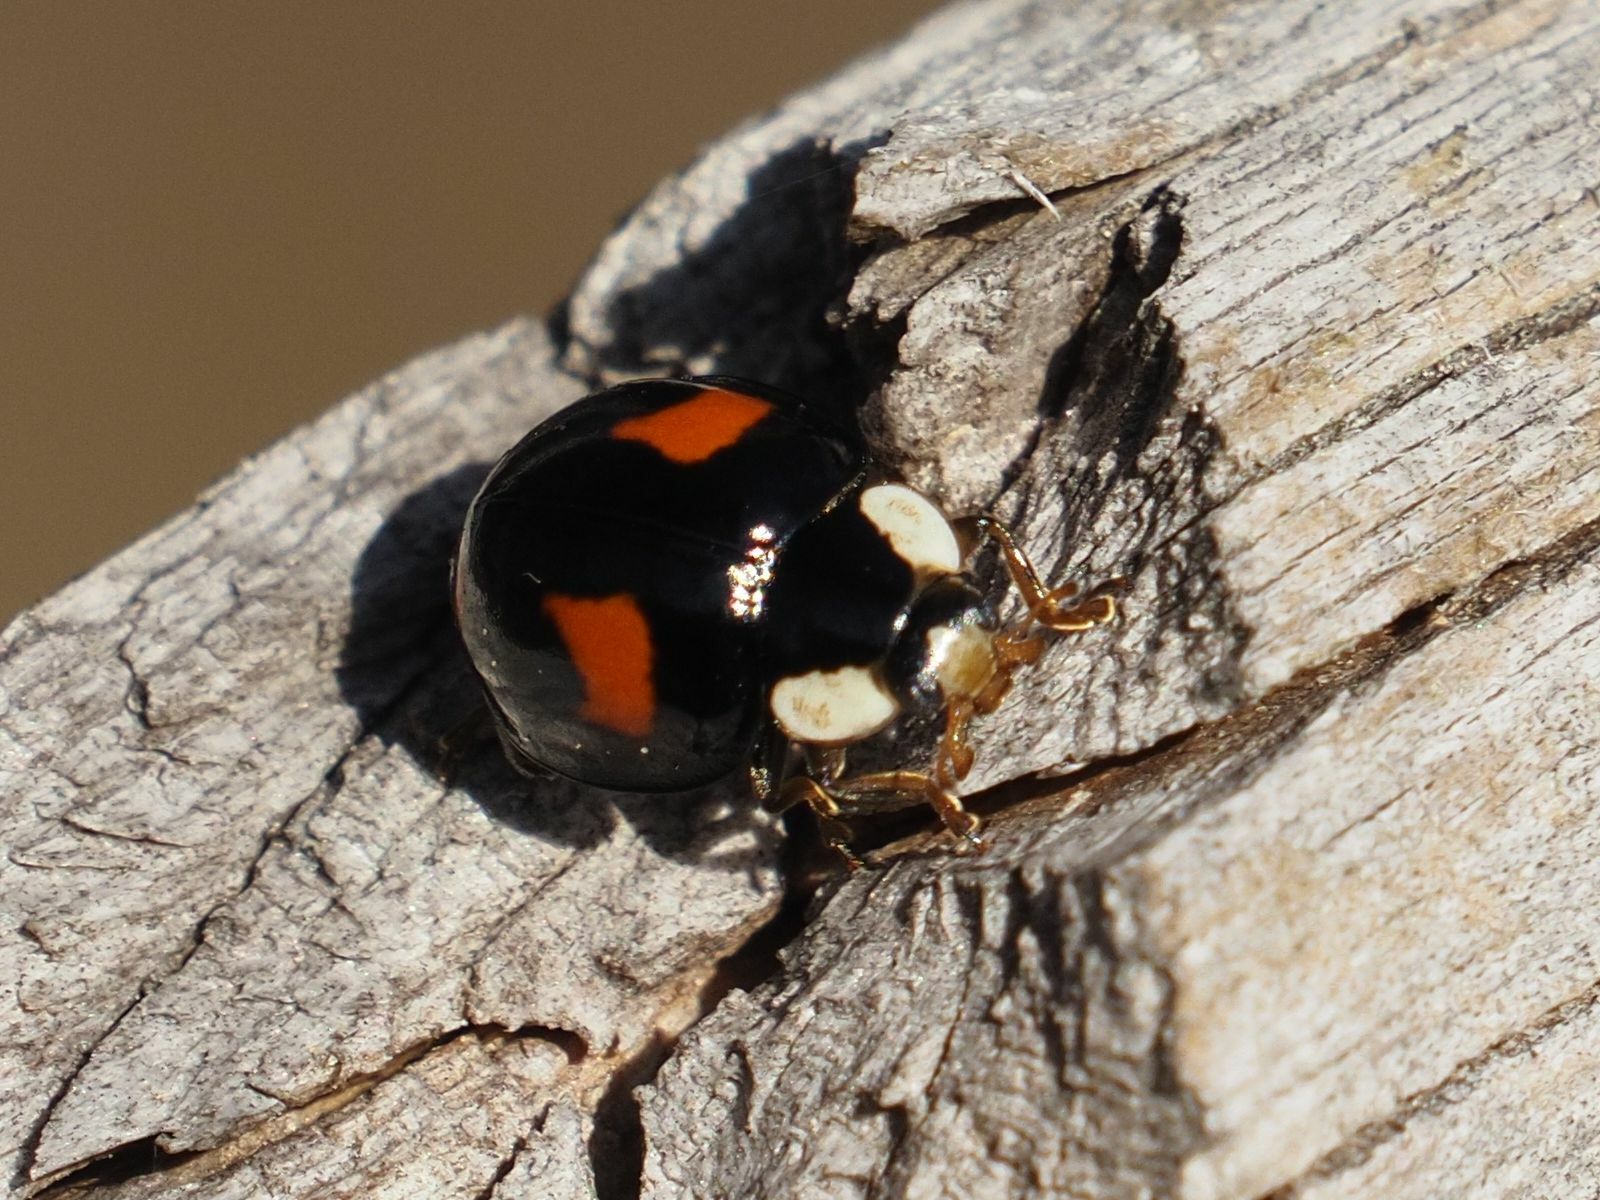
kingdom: Animalia
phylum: Arthropoda
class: Insecta
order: Coleoptera
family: Coccinellidae
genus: Harmonia
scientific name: Harmonia axyridis
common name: Harlequin ladybird
